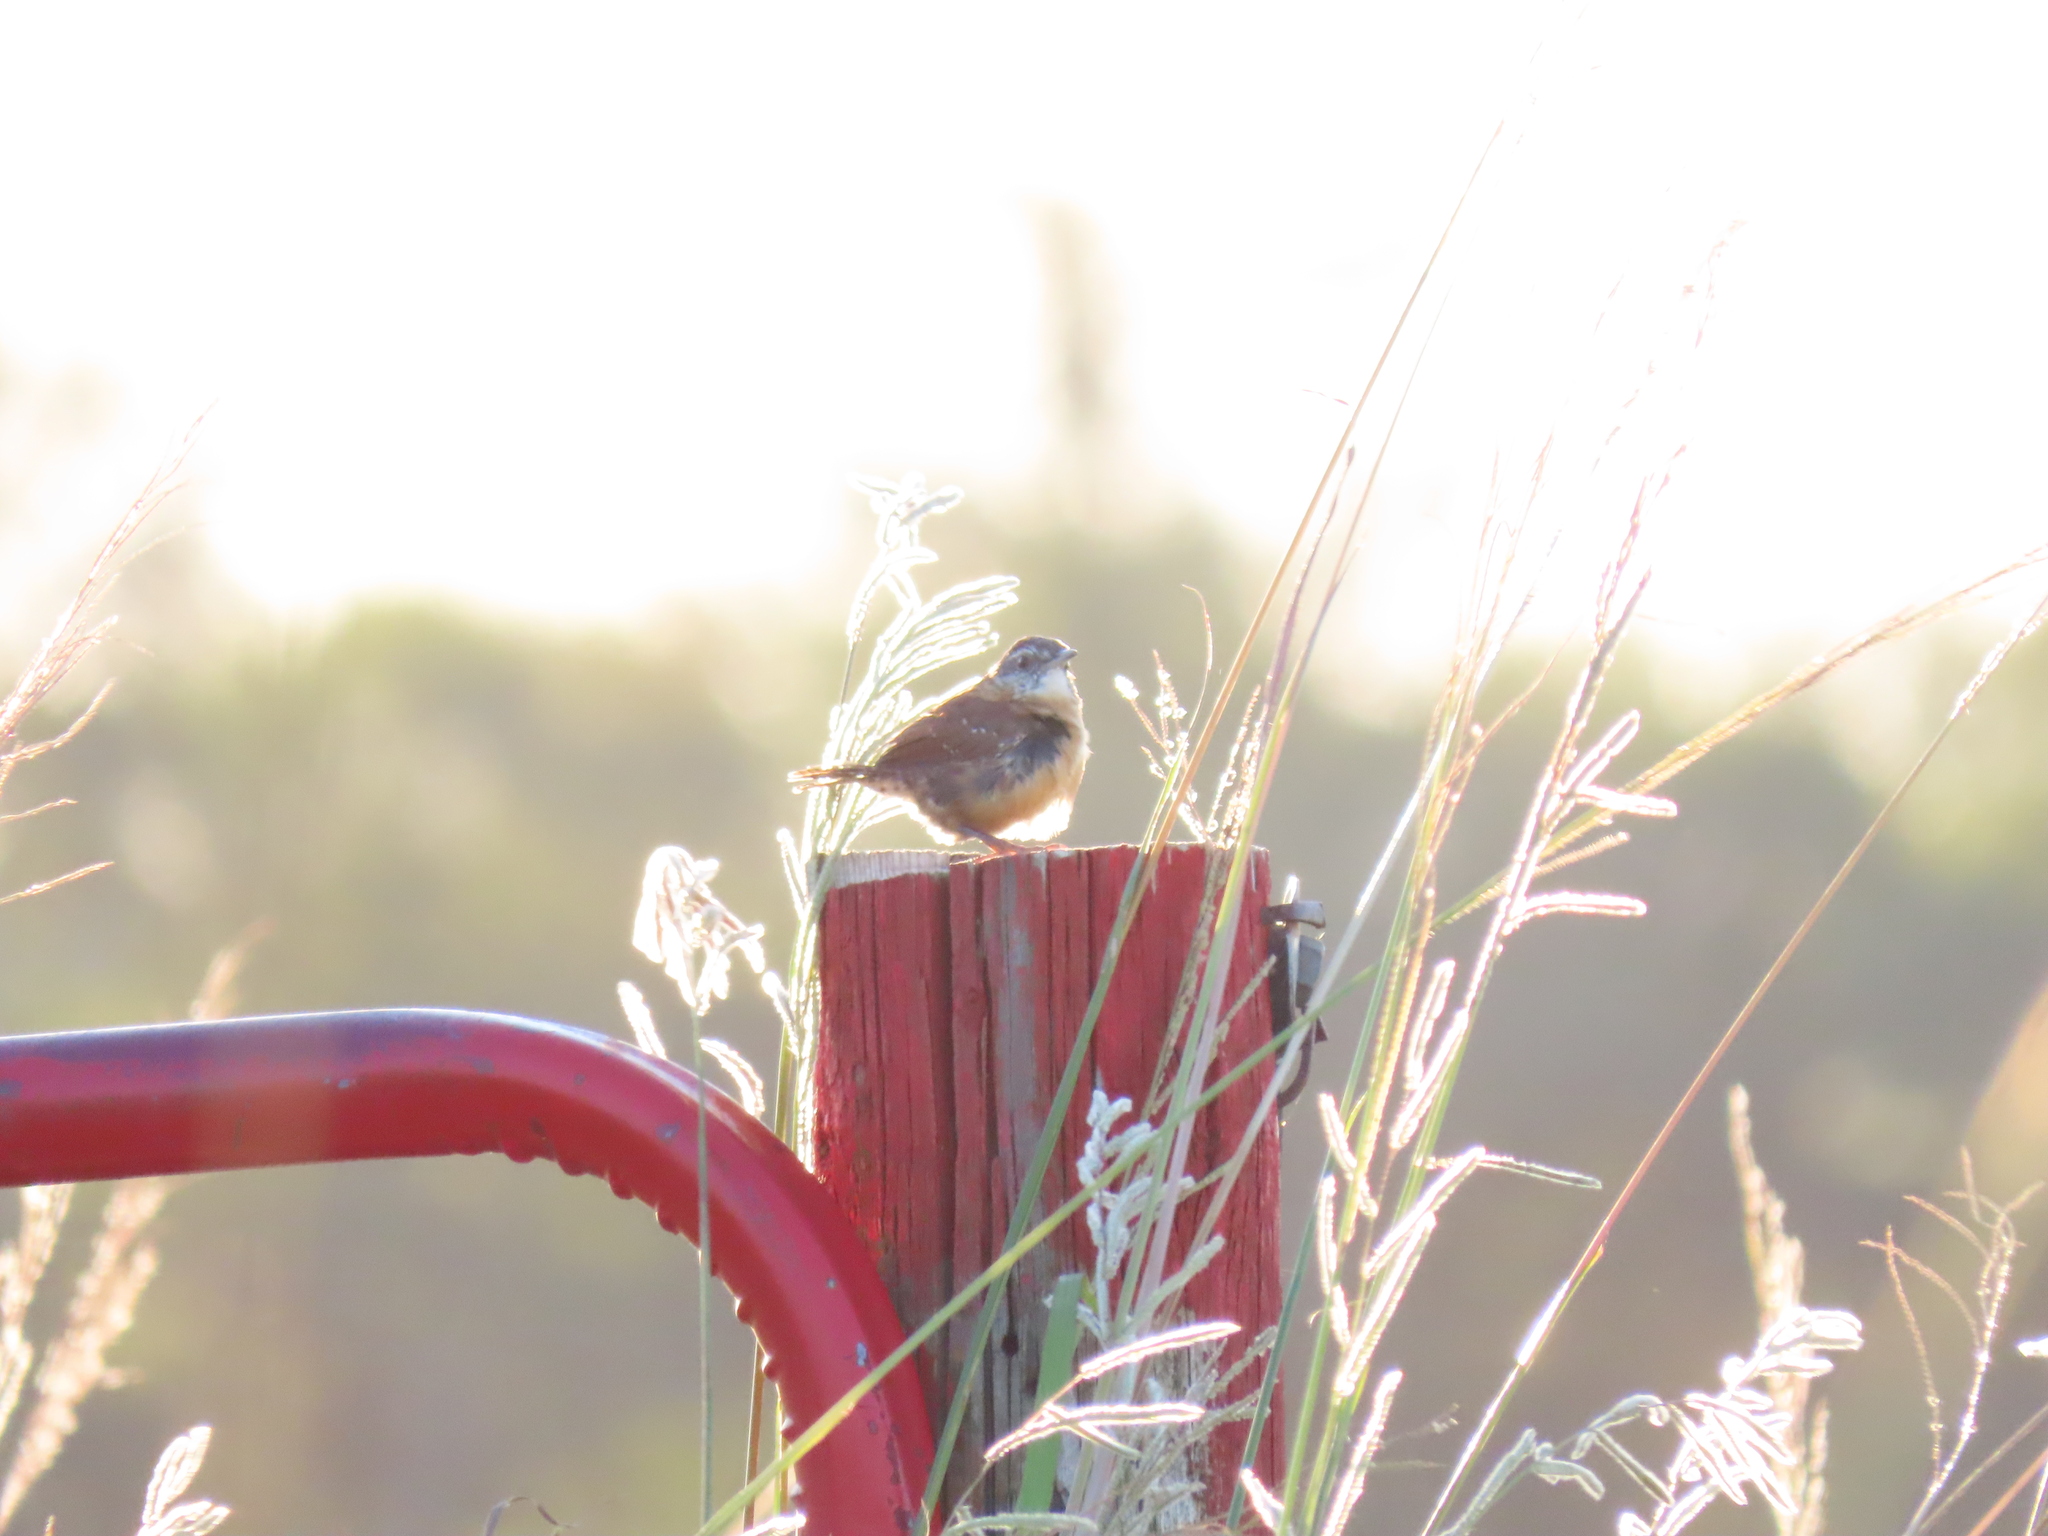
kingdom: Animalia
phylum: Chordata
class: Aves
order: Passeriformes
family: Troglodytidae
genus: Thryothorus
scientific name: Thryothorus ludovicianus
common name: Carolina wren
